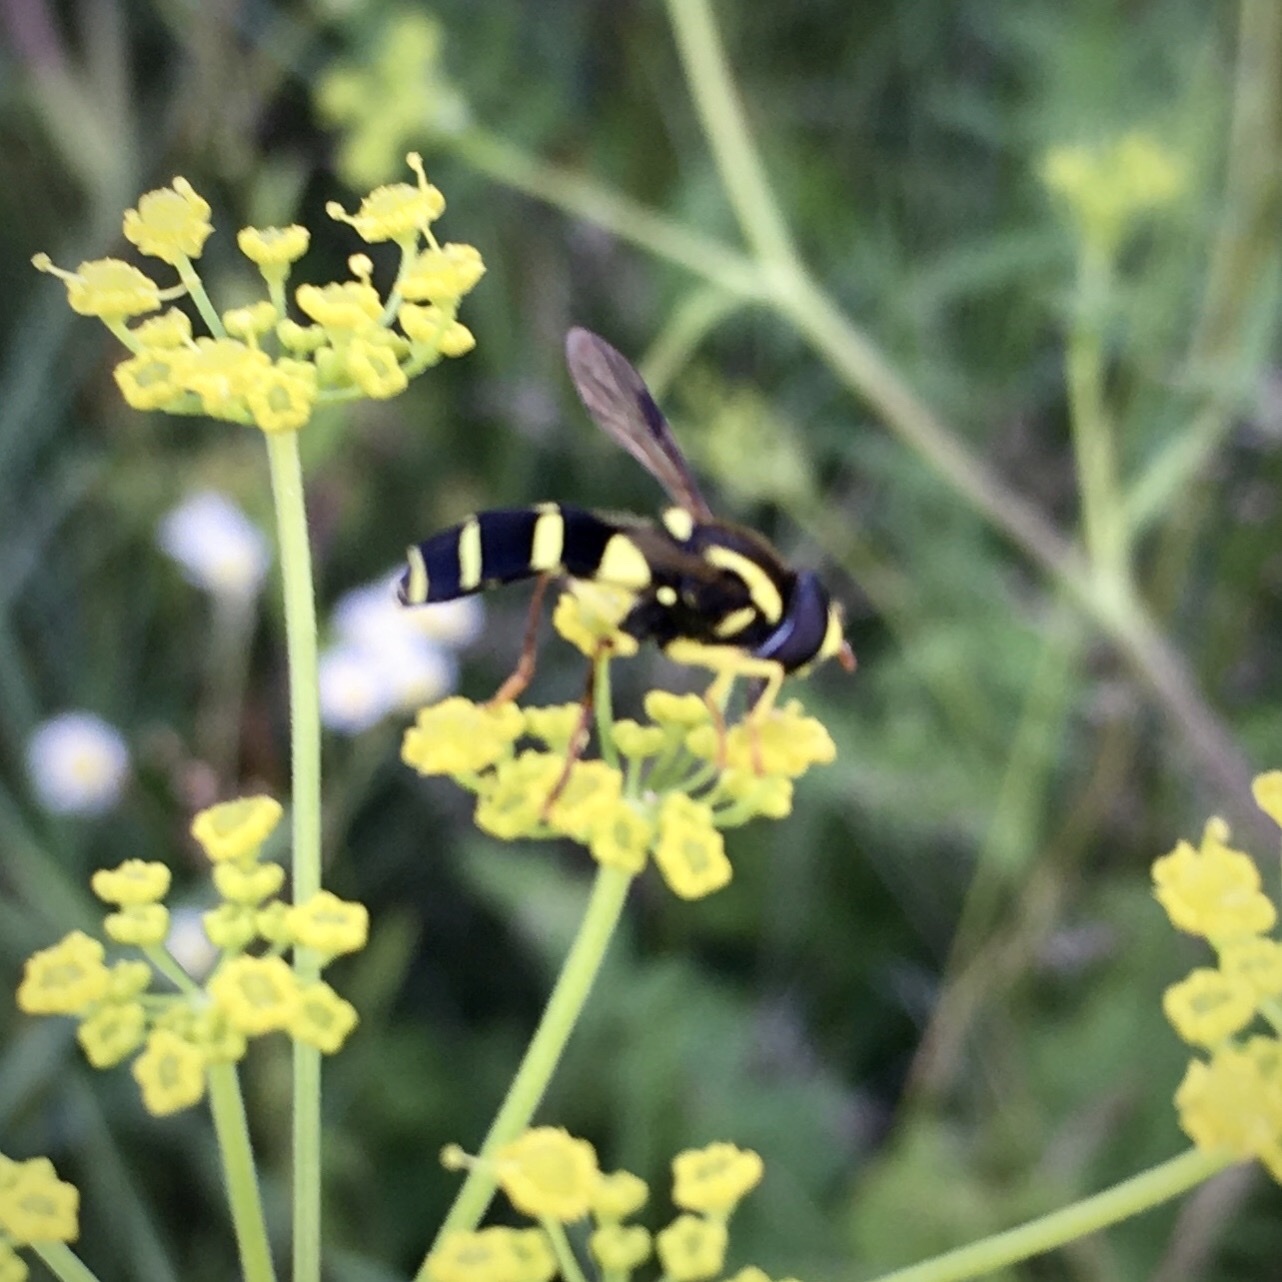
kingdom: Animalia
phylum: Arthropoda
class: Insecta
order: Diptera
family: Syrphidae
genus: Xanthogramma
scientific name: Xanthogramma
